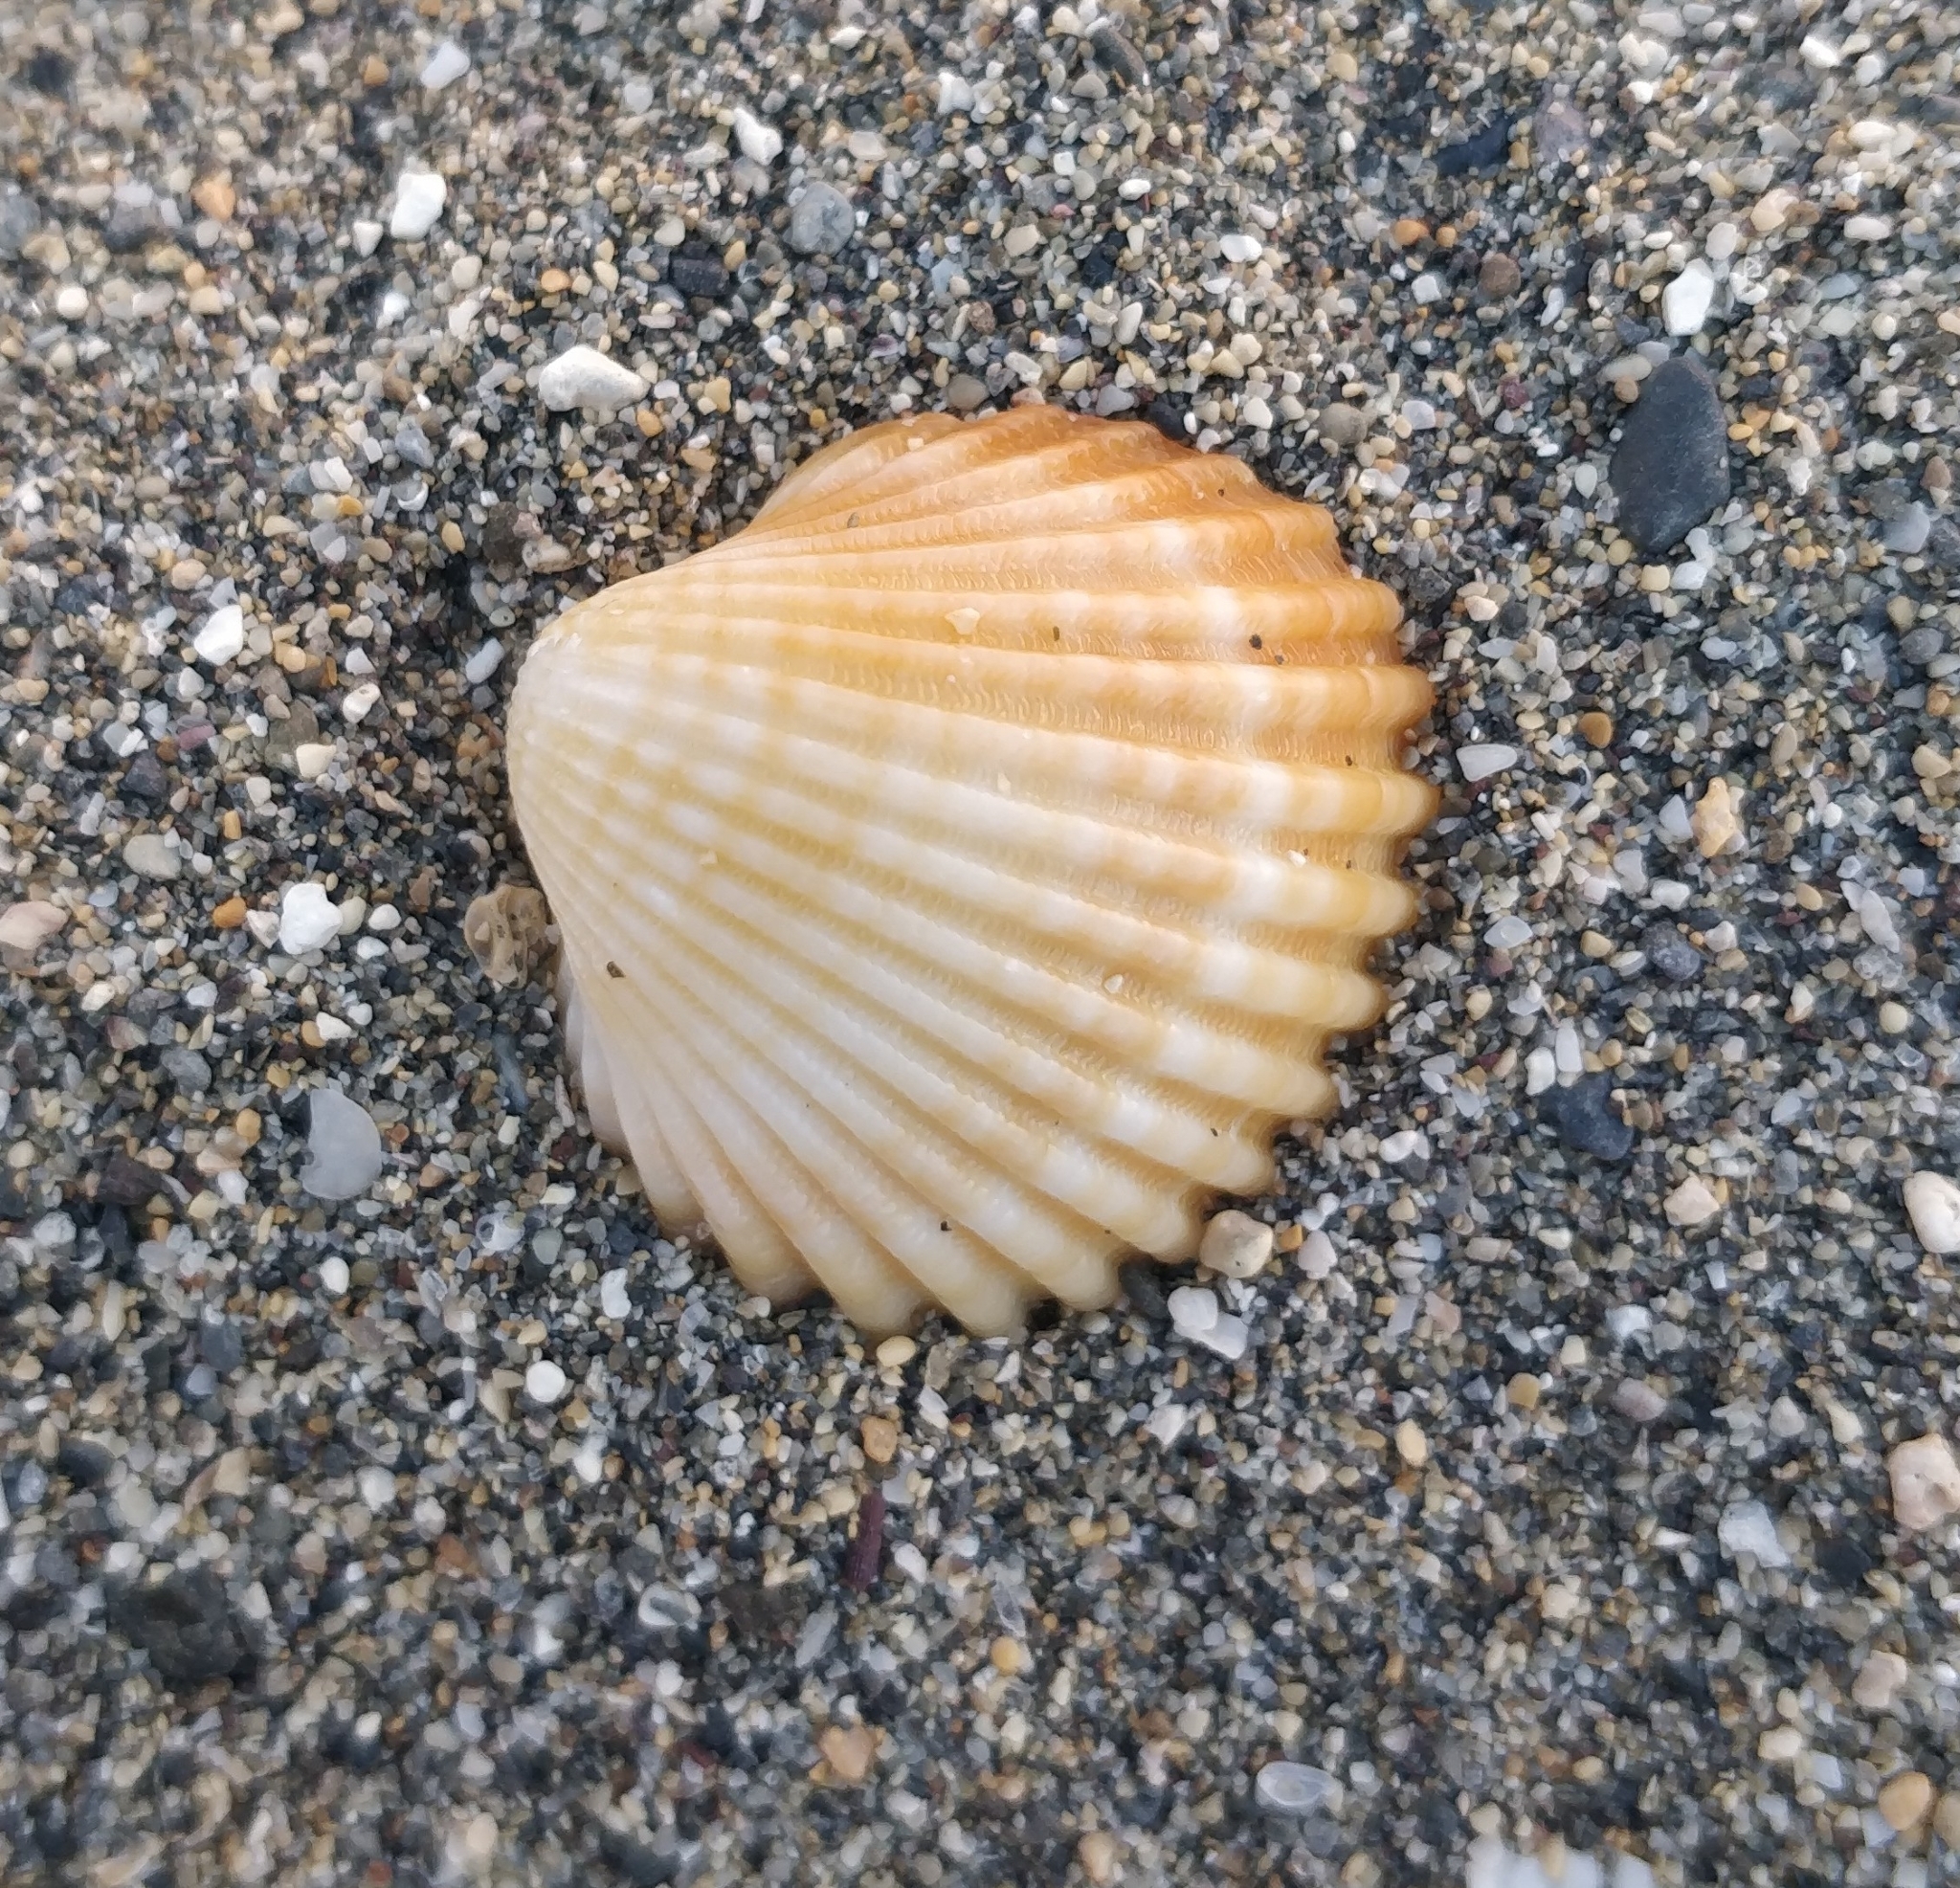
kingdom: Animalia
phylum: Mollusca
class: Bivalvia
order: Cardiida
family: Cardiidae
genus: Acanthocardia
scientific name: Acanthocardia tuberculata
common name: Rough cockle
